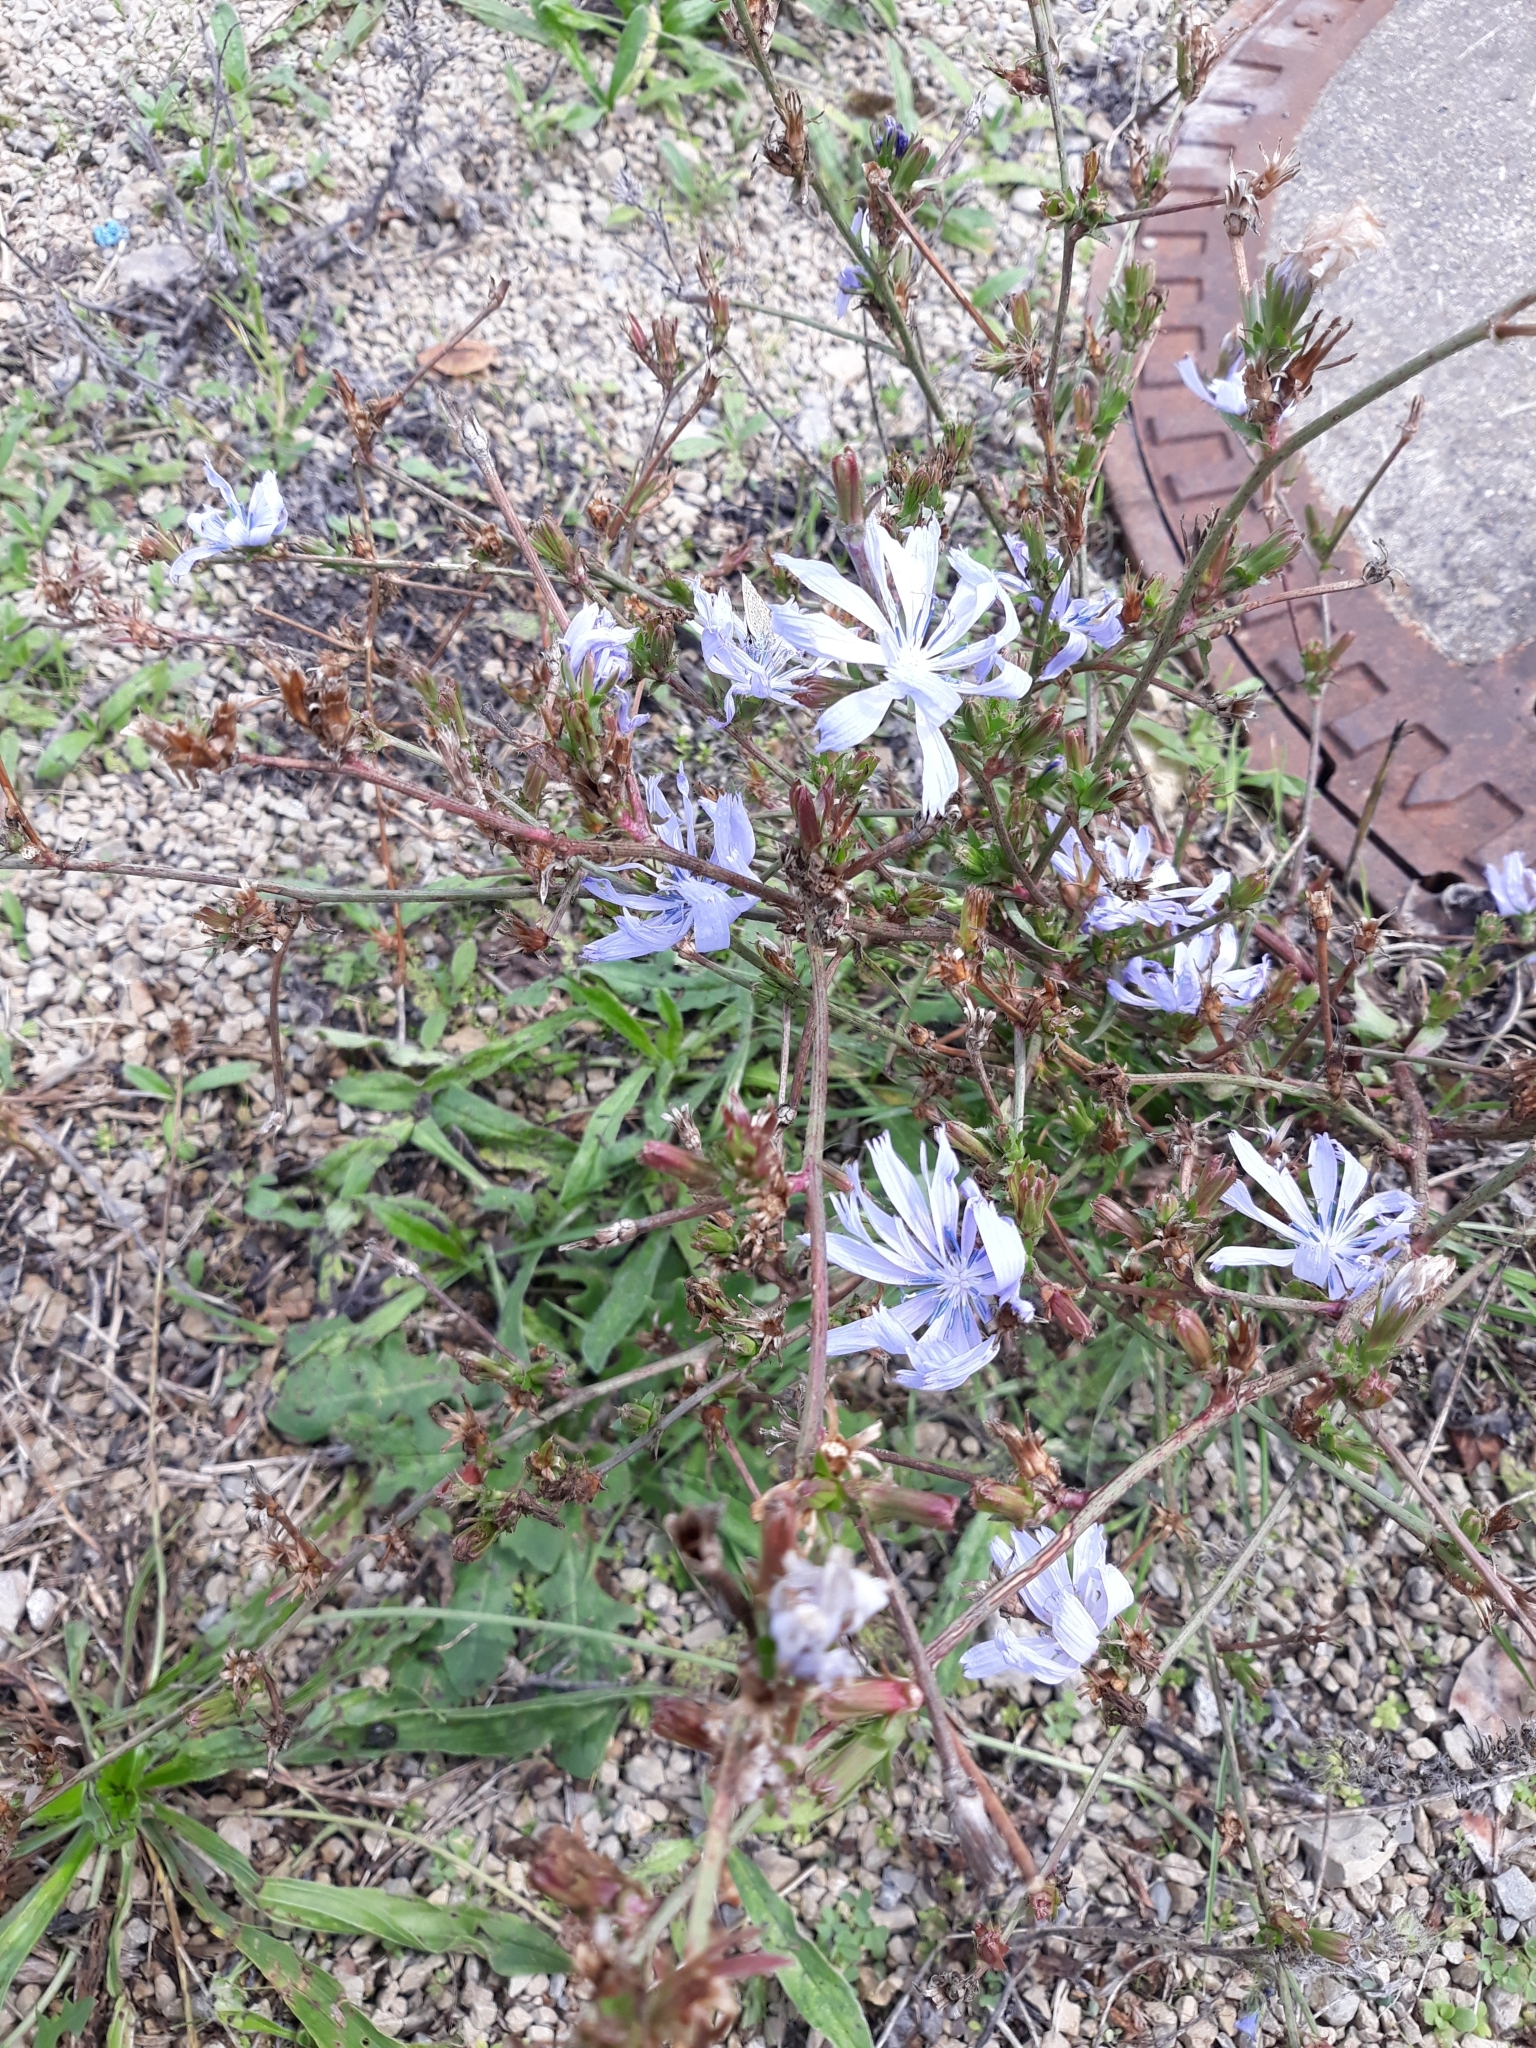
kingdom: Plantae
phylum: Tracheophyta
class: Magnoliopsida
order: Asterales
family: Asteraceae
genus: Cichorium
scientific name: Cichorium intybus
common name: Chicory
